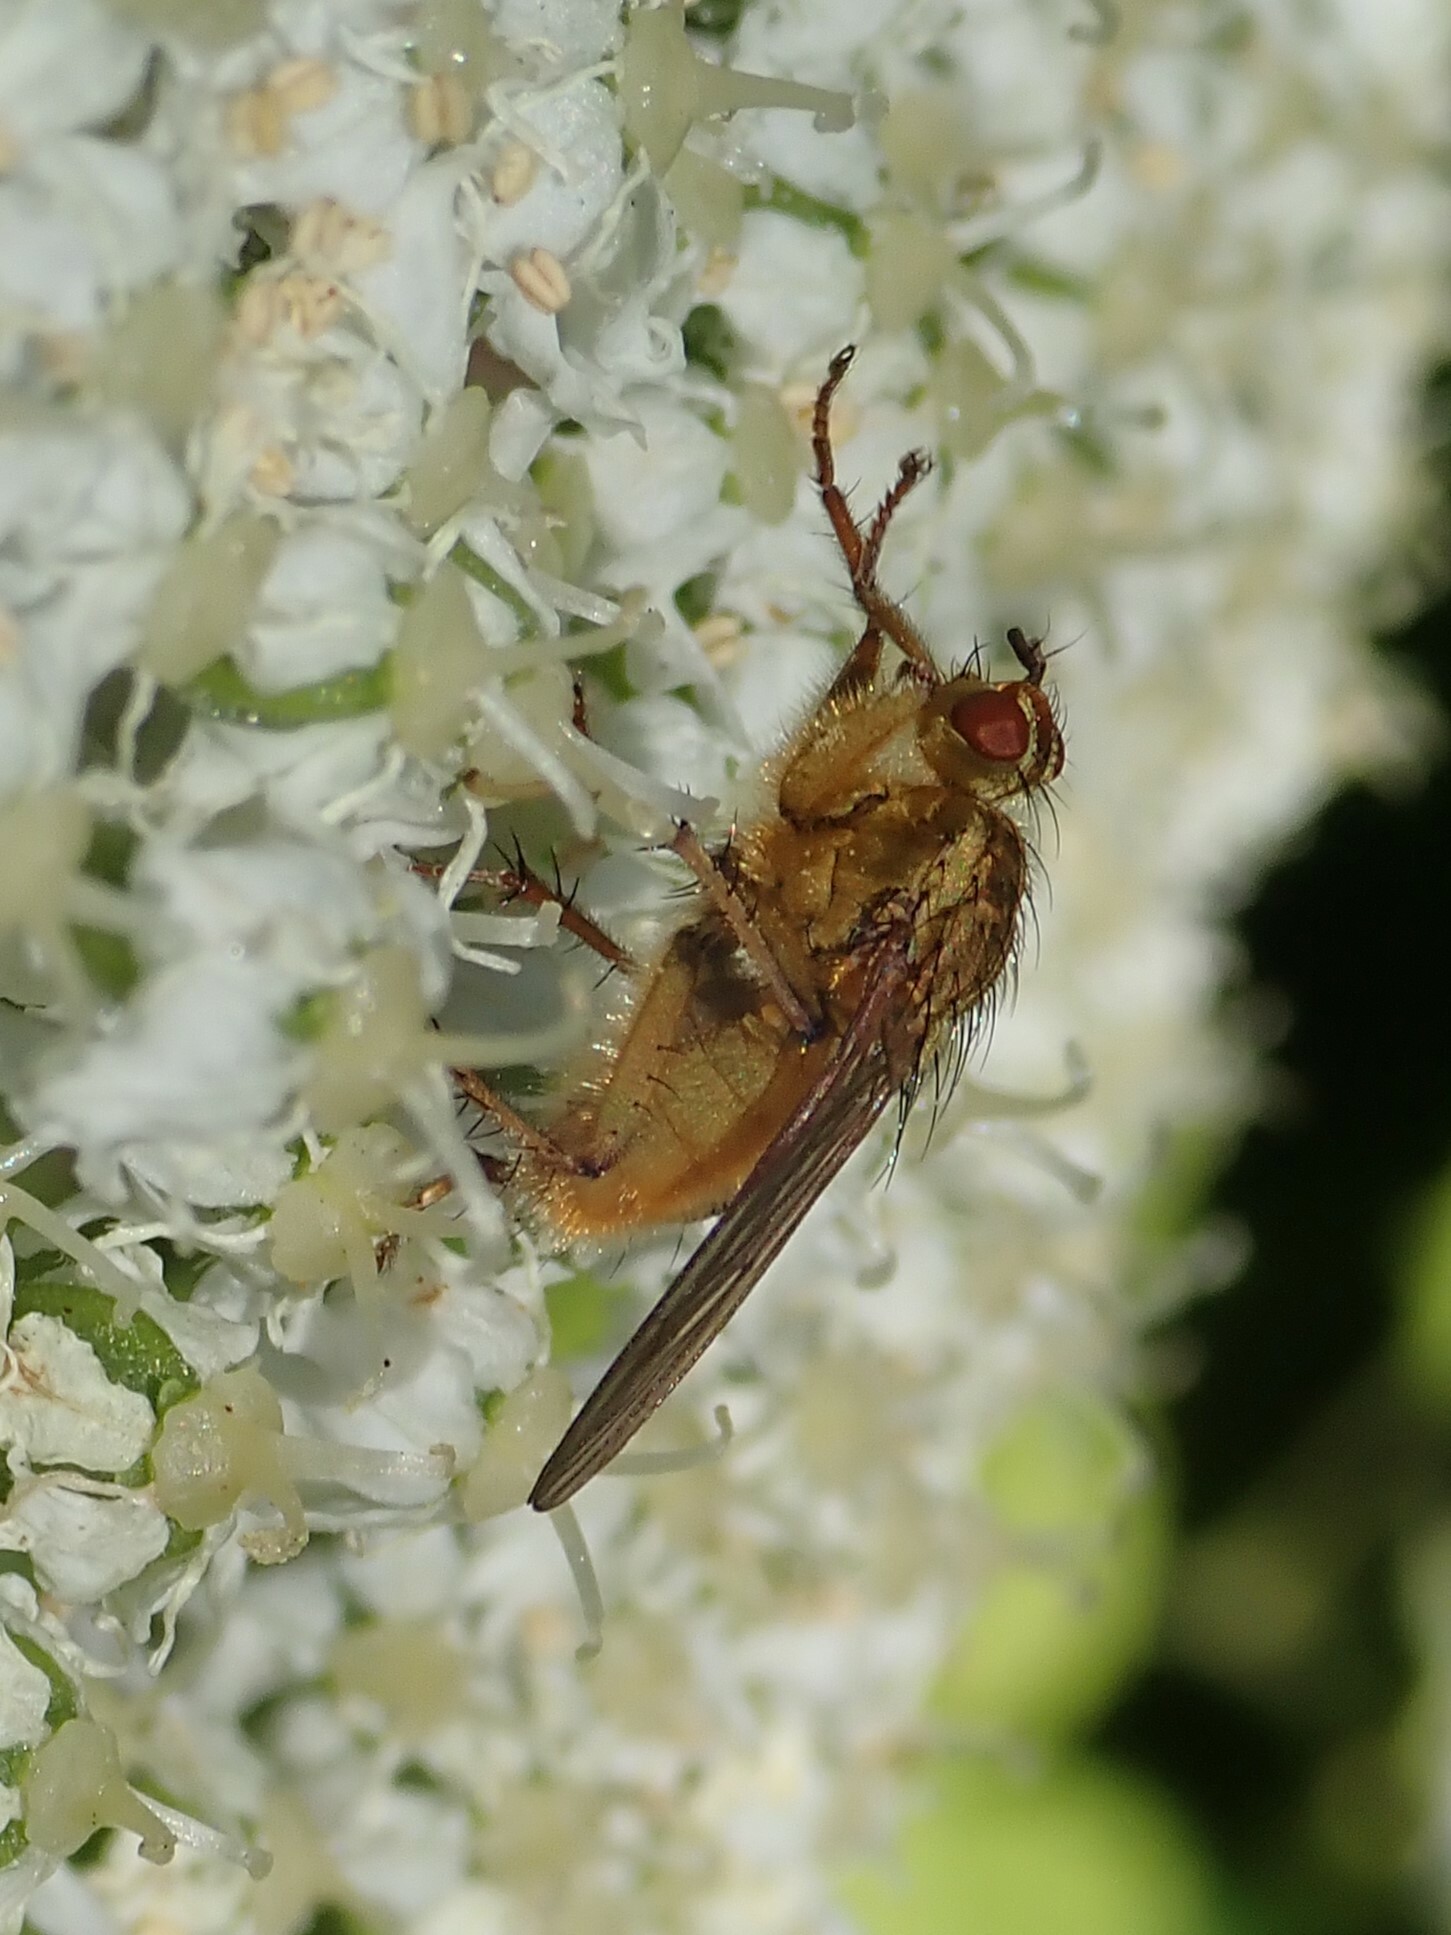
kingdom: Animalia
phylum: Arthropoda
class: Insecta
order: Diptera
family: Scathophagidae
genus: Scathophaga
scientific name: Scathophaga stercoraria
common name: Yellow dung fly
